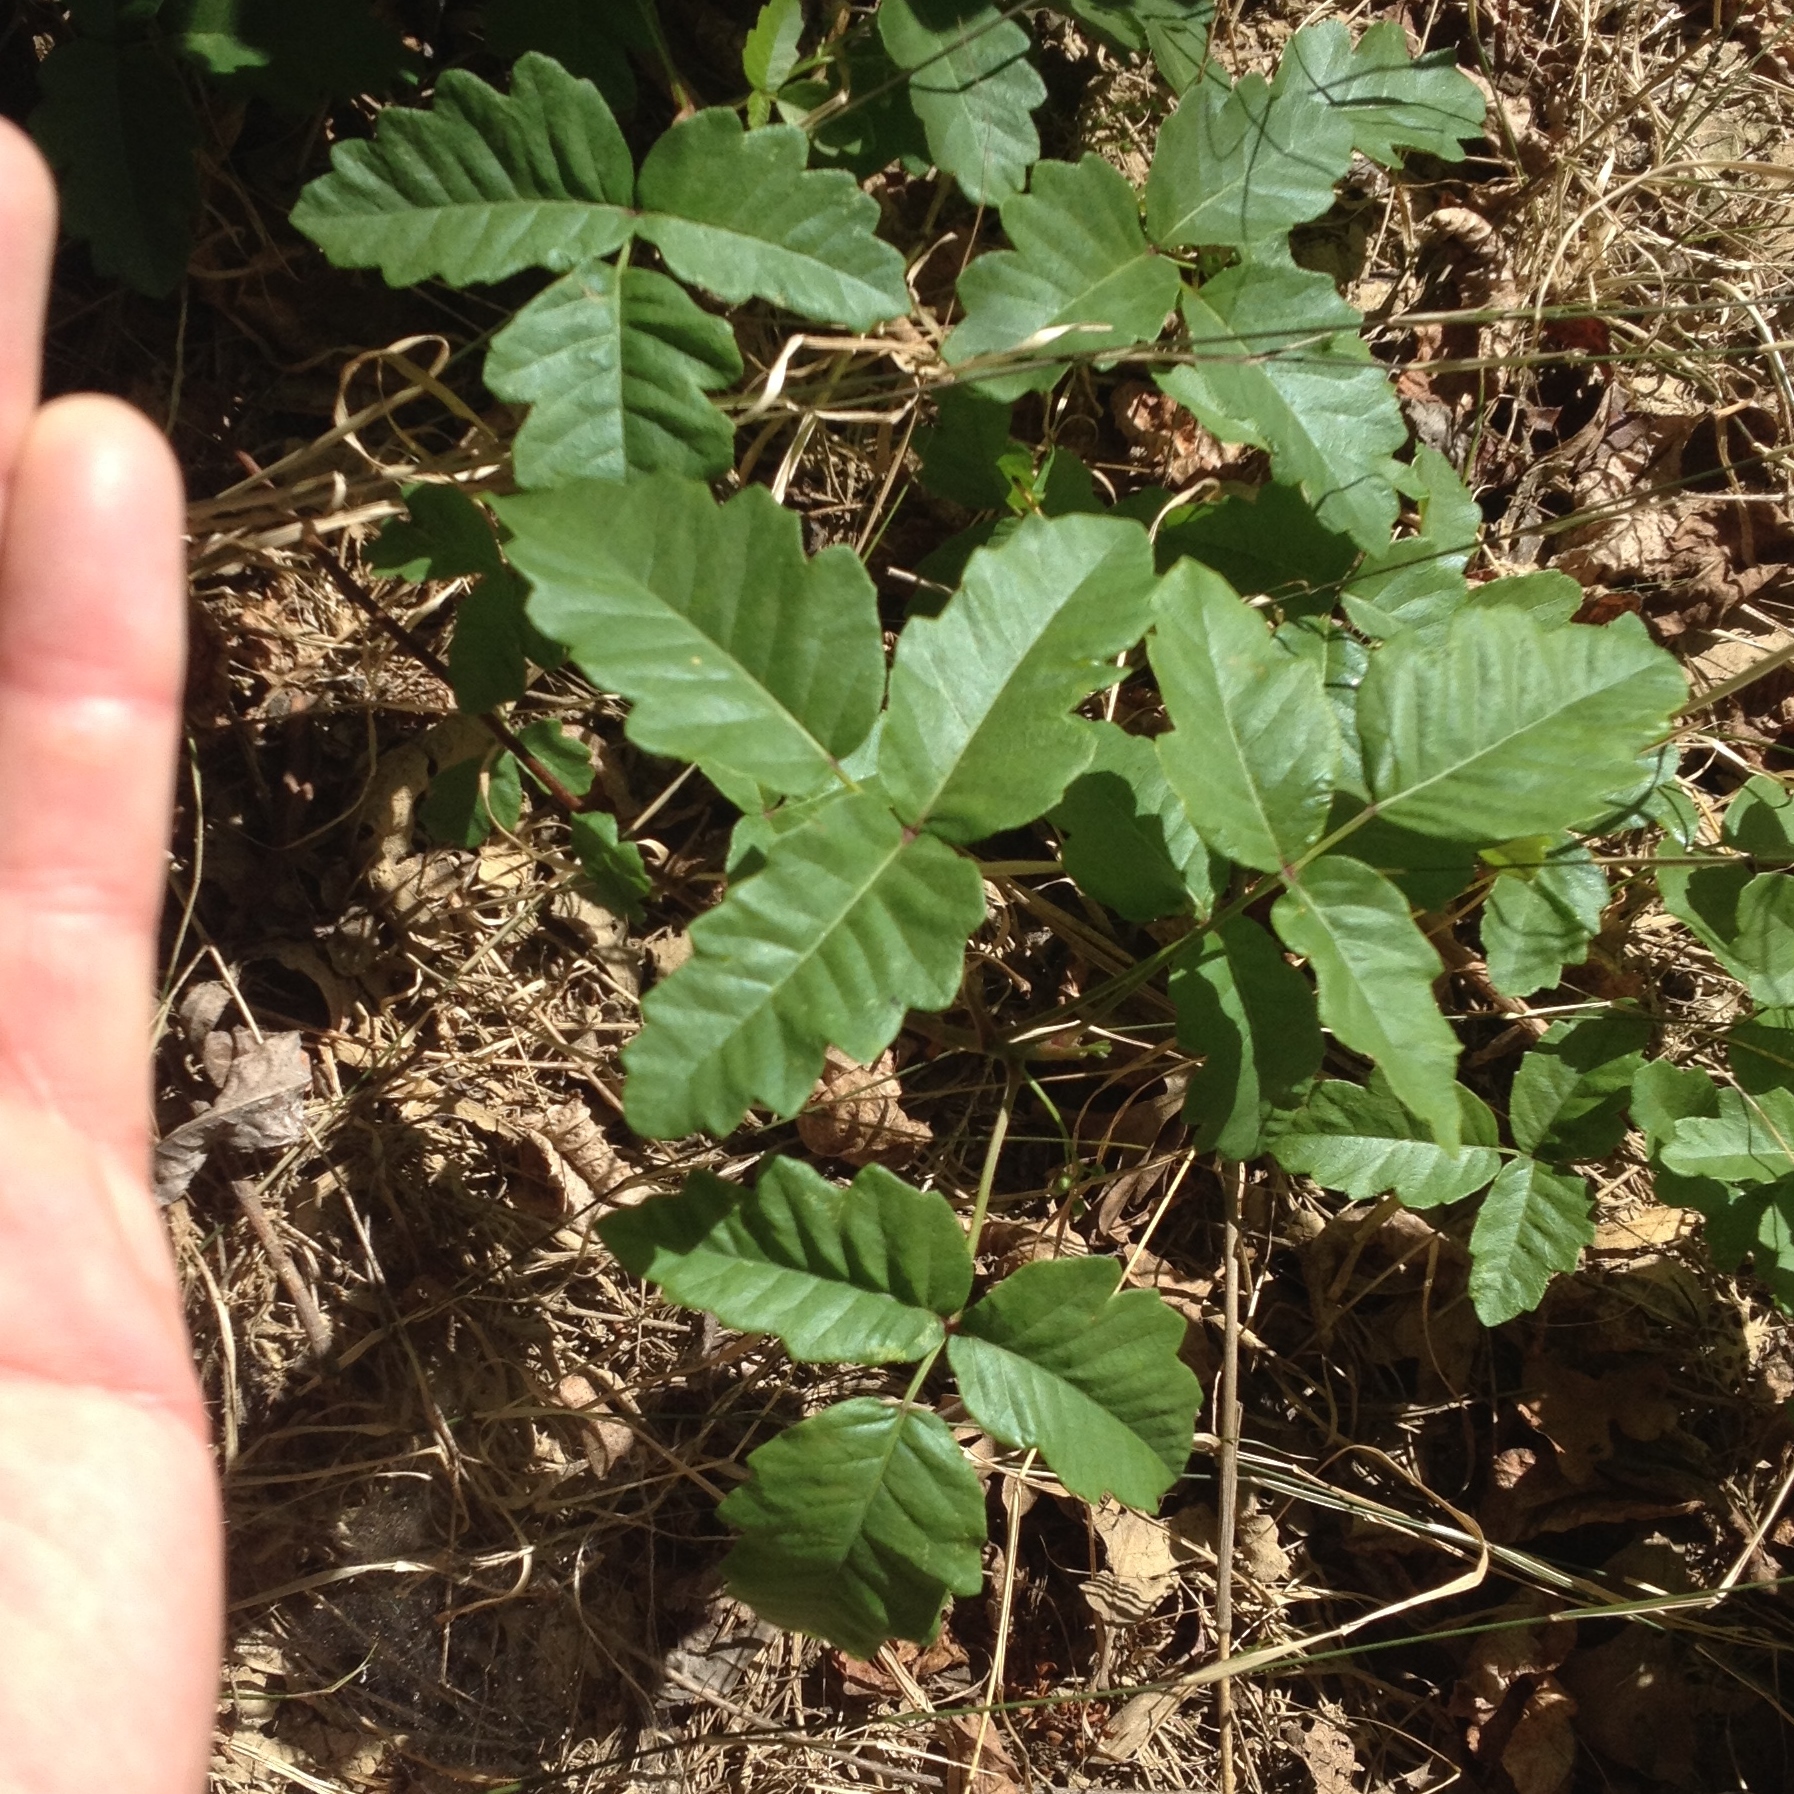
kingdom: Plantae
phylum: Tracheophyta
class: Magnoliopsida
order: Sapindales
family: Anacardiaceae
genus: Toxicodendron
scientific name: Toxicodendron diversilobum
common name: Pacific poison-oak
